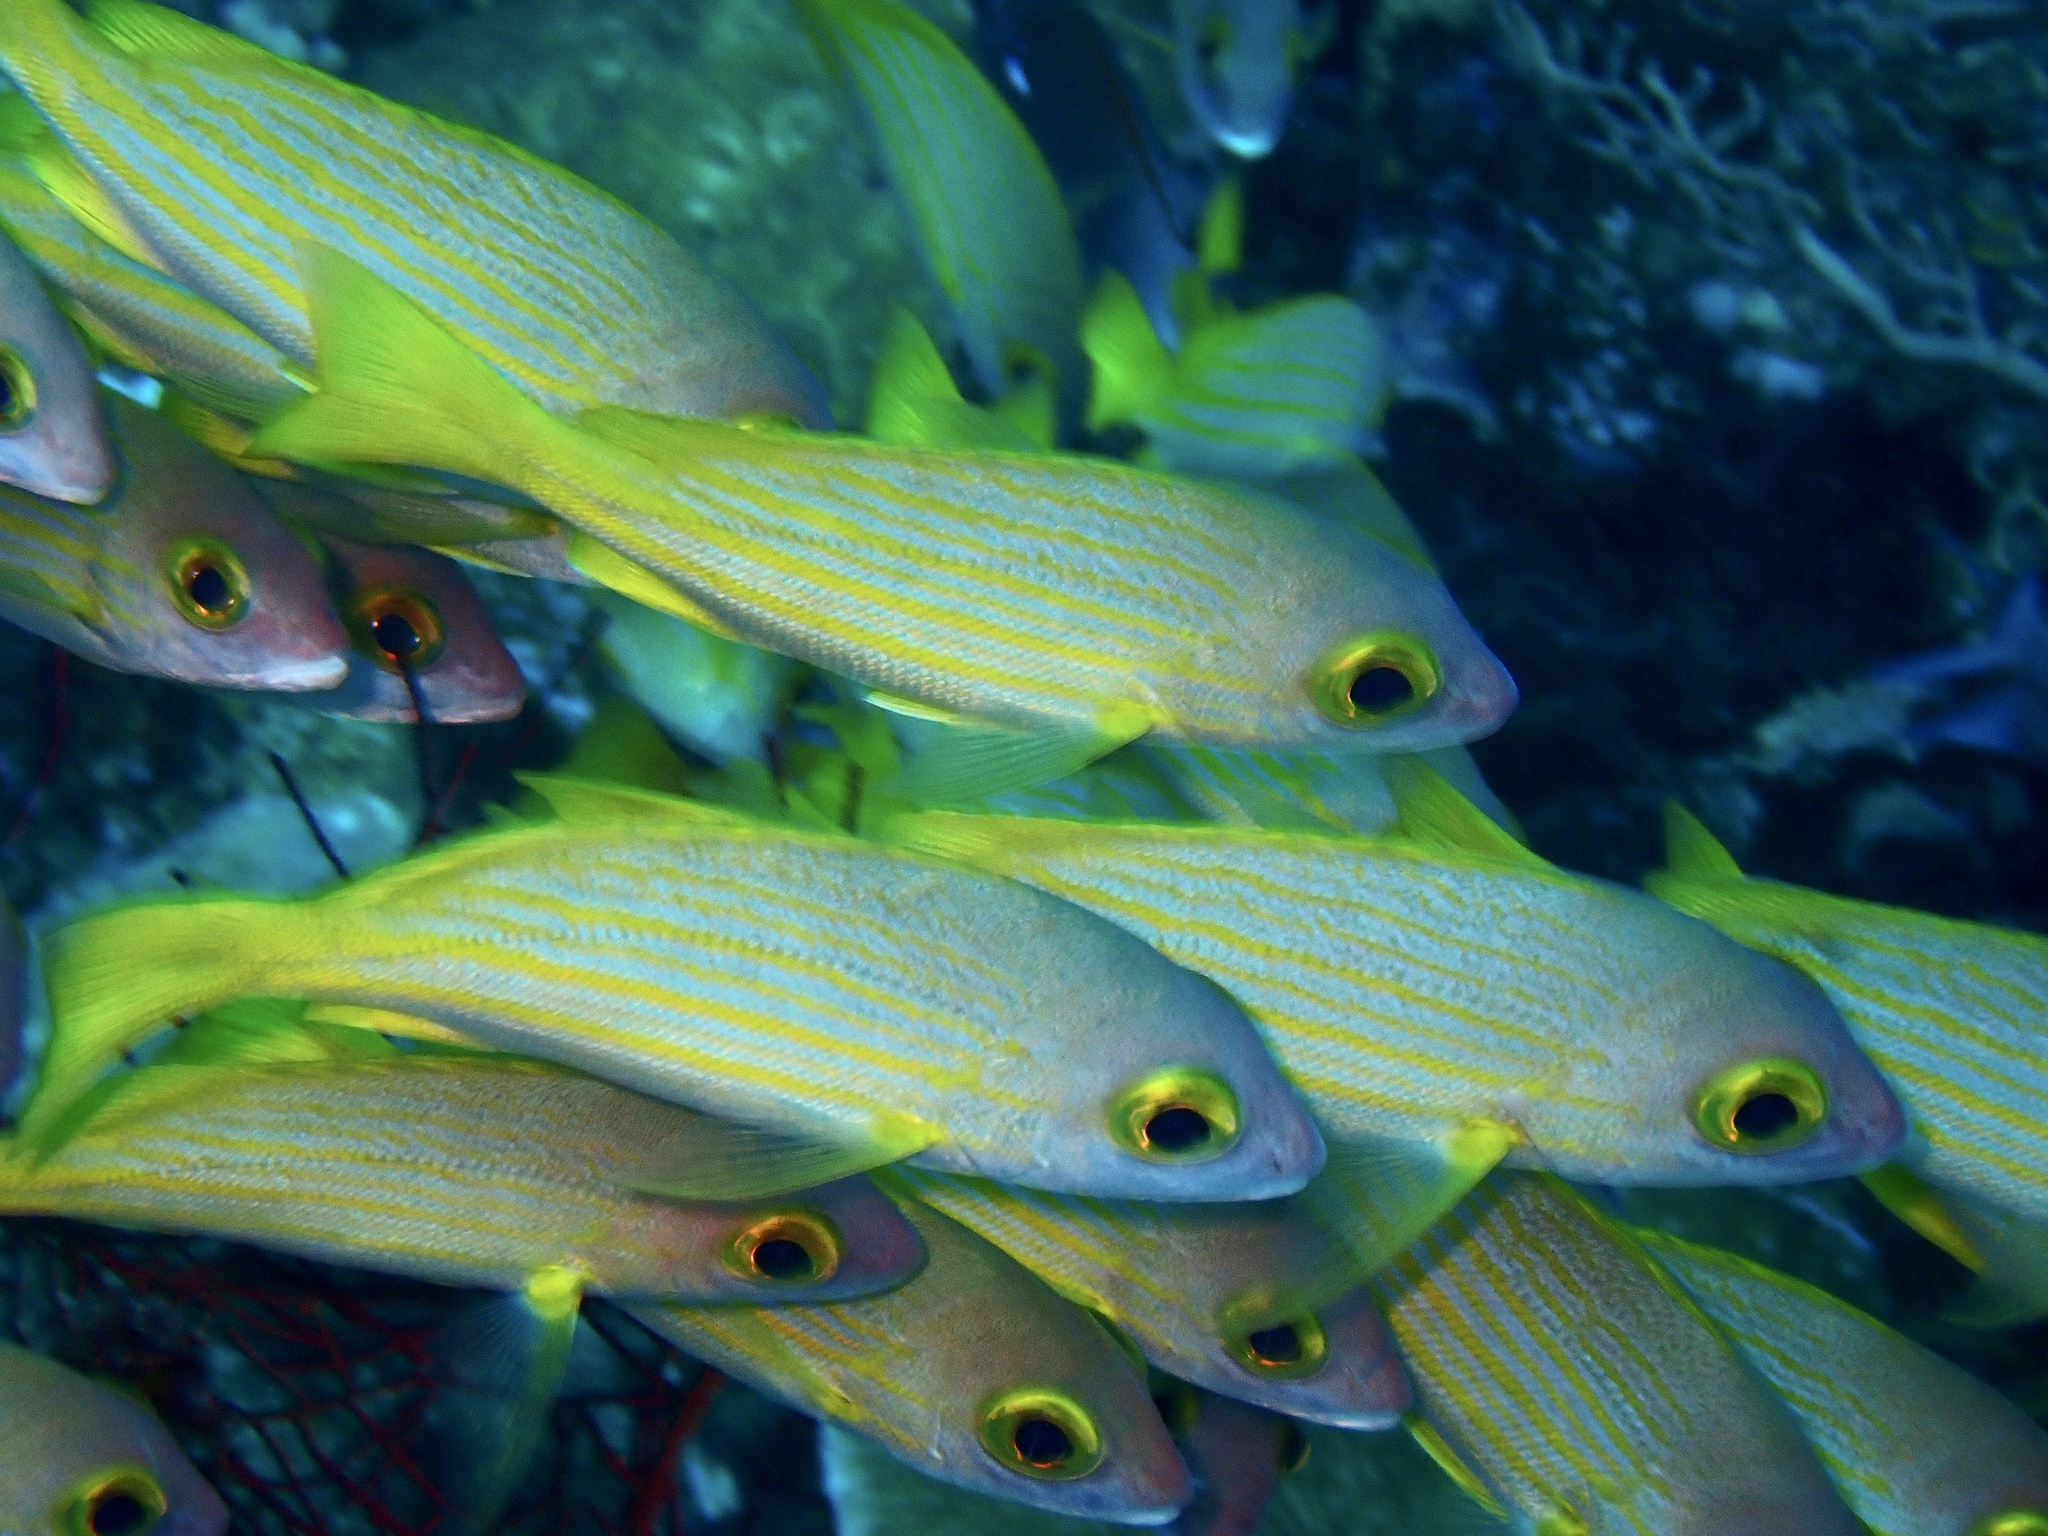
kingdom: Animalia
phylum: Chordata
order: Perciformes
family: Lutjanidae
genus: Lutjanus
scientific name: Lutjanus rufolineatus
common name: Yellow-lined seaperch
